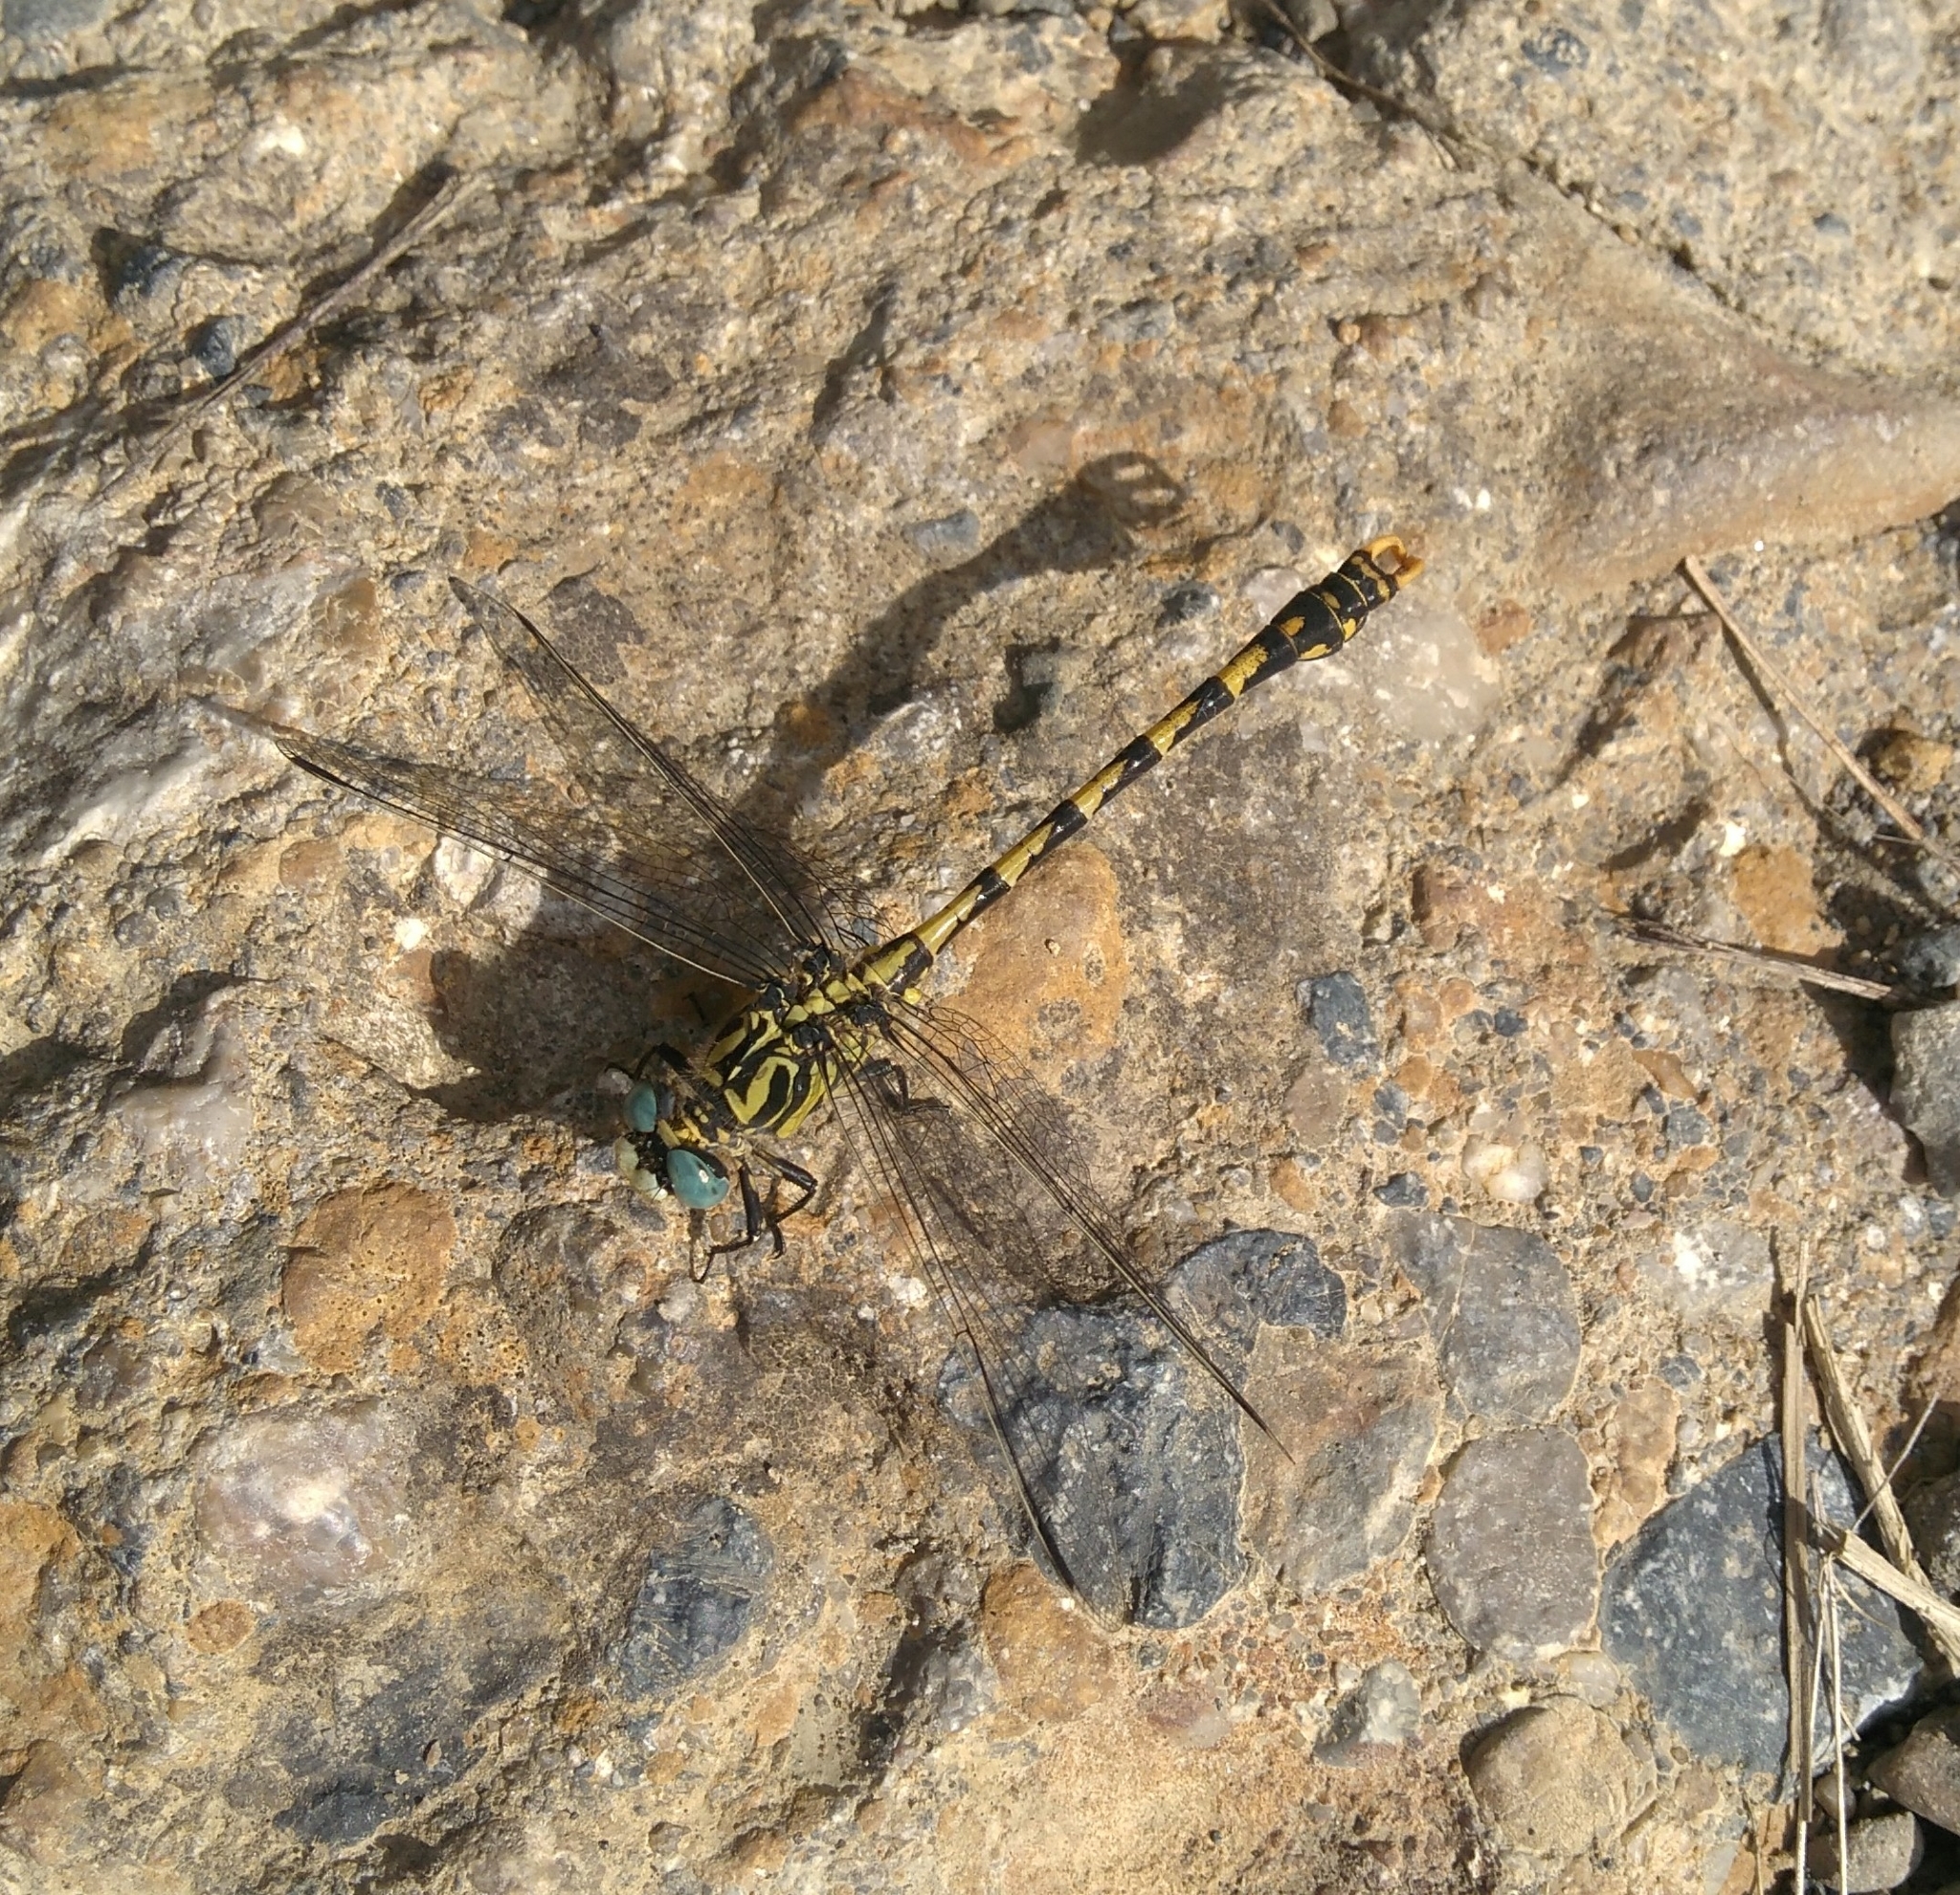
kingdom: Animalia
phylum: Arthropoda
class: Insecta
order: Odonata
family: Gomphidae
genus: Onychogomphus
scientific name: Onychogomphus uncatus
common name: Large pincertail
